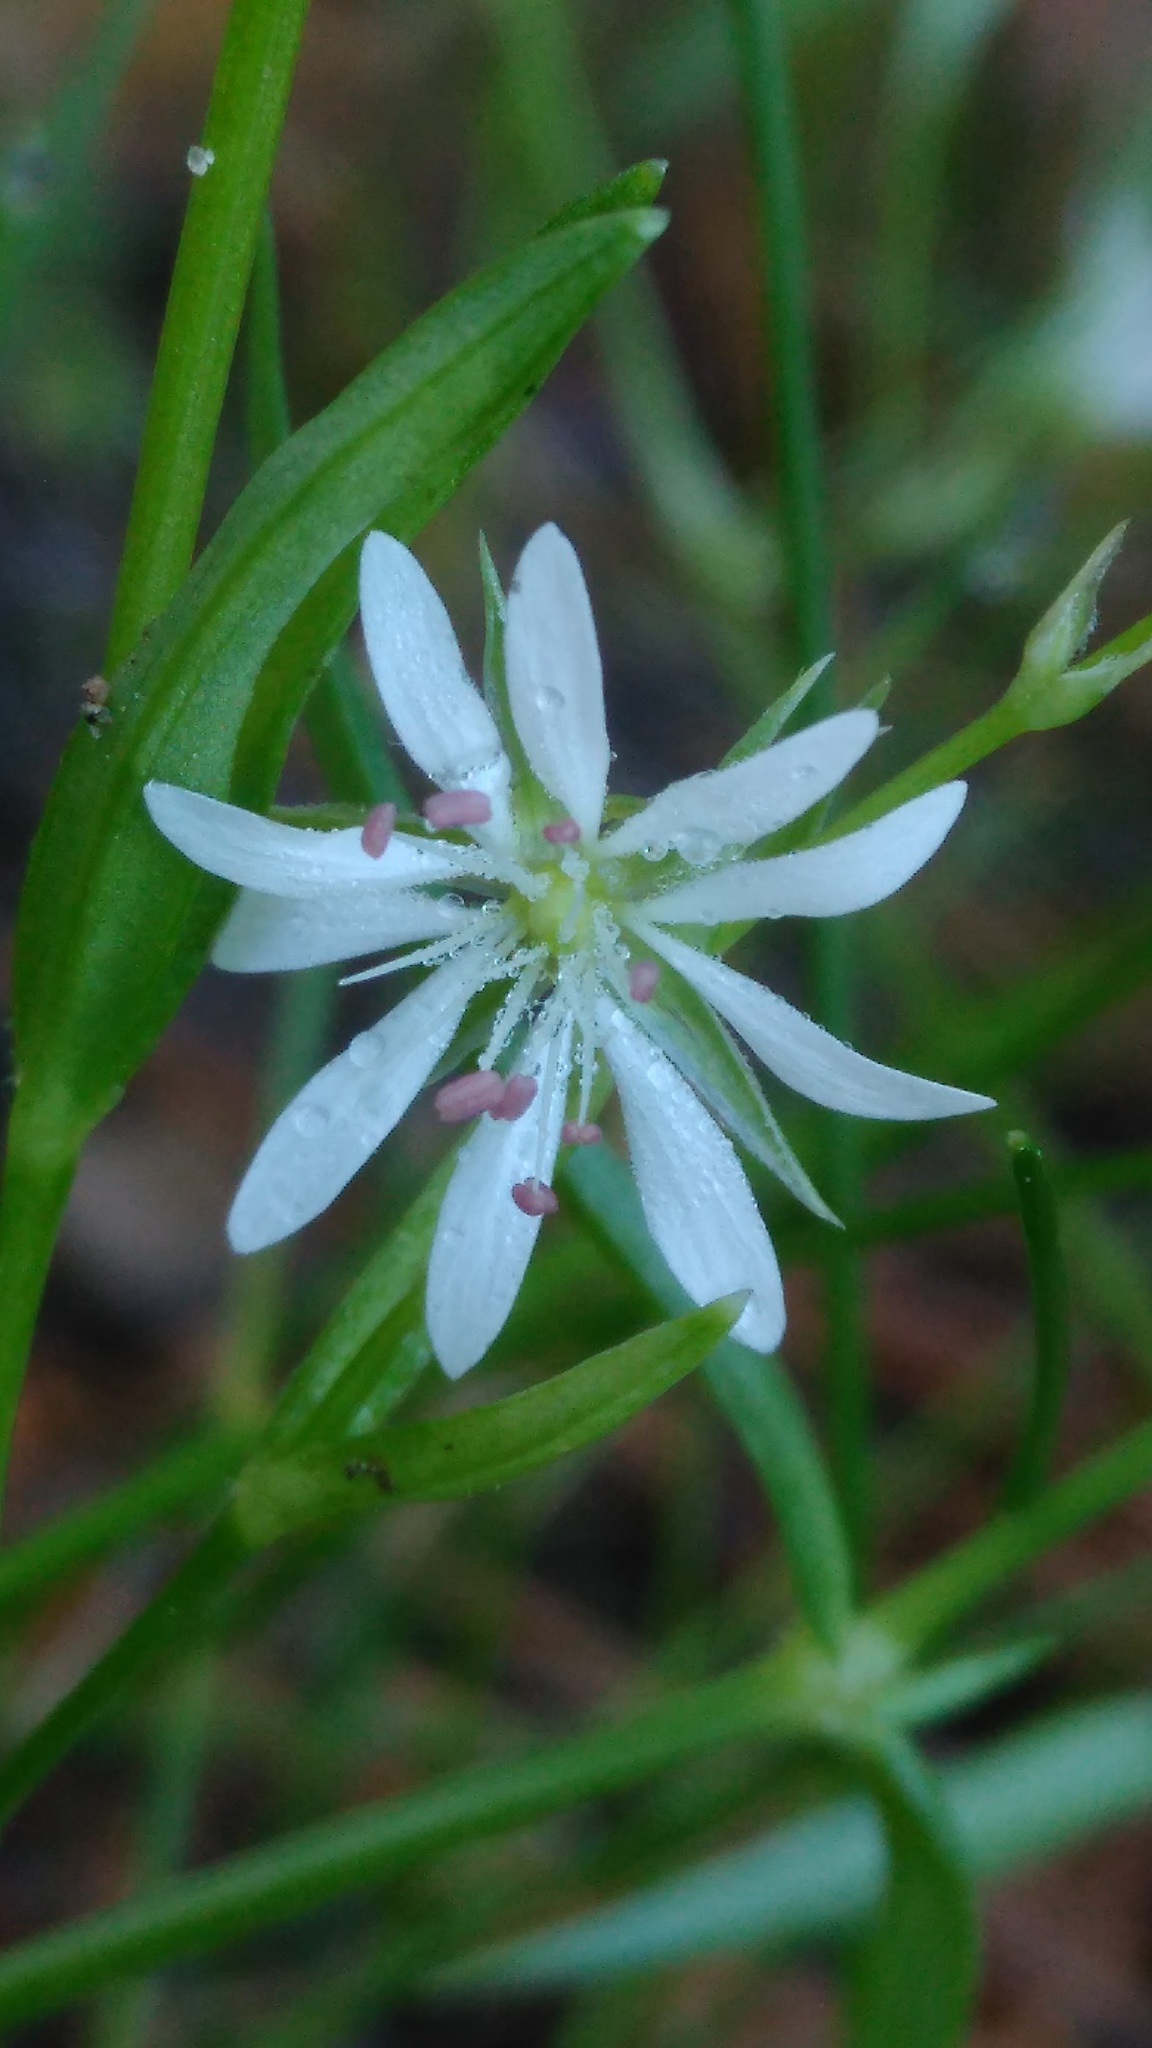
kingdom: Plantae
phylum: Tracheophyta
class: Magnoliopsida
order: Caryophyllales
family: Caryophyllaceae
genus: Stellaria
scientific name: Stellaria graminea
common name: Grass-like starwort
